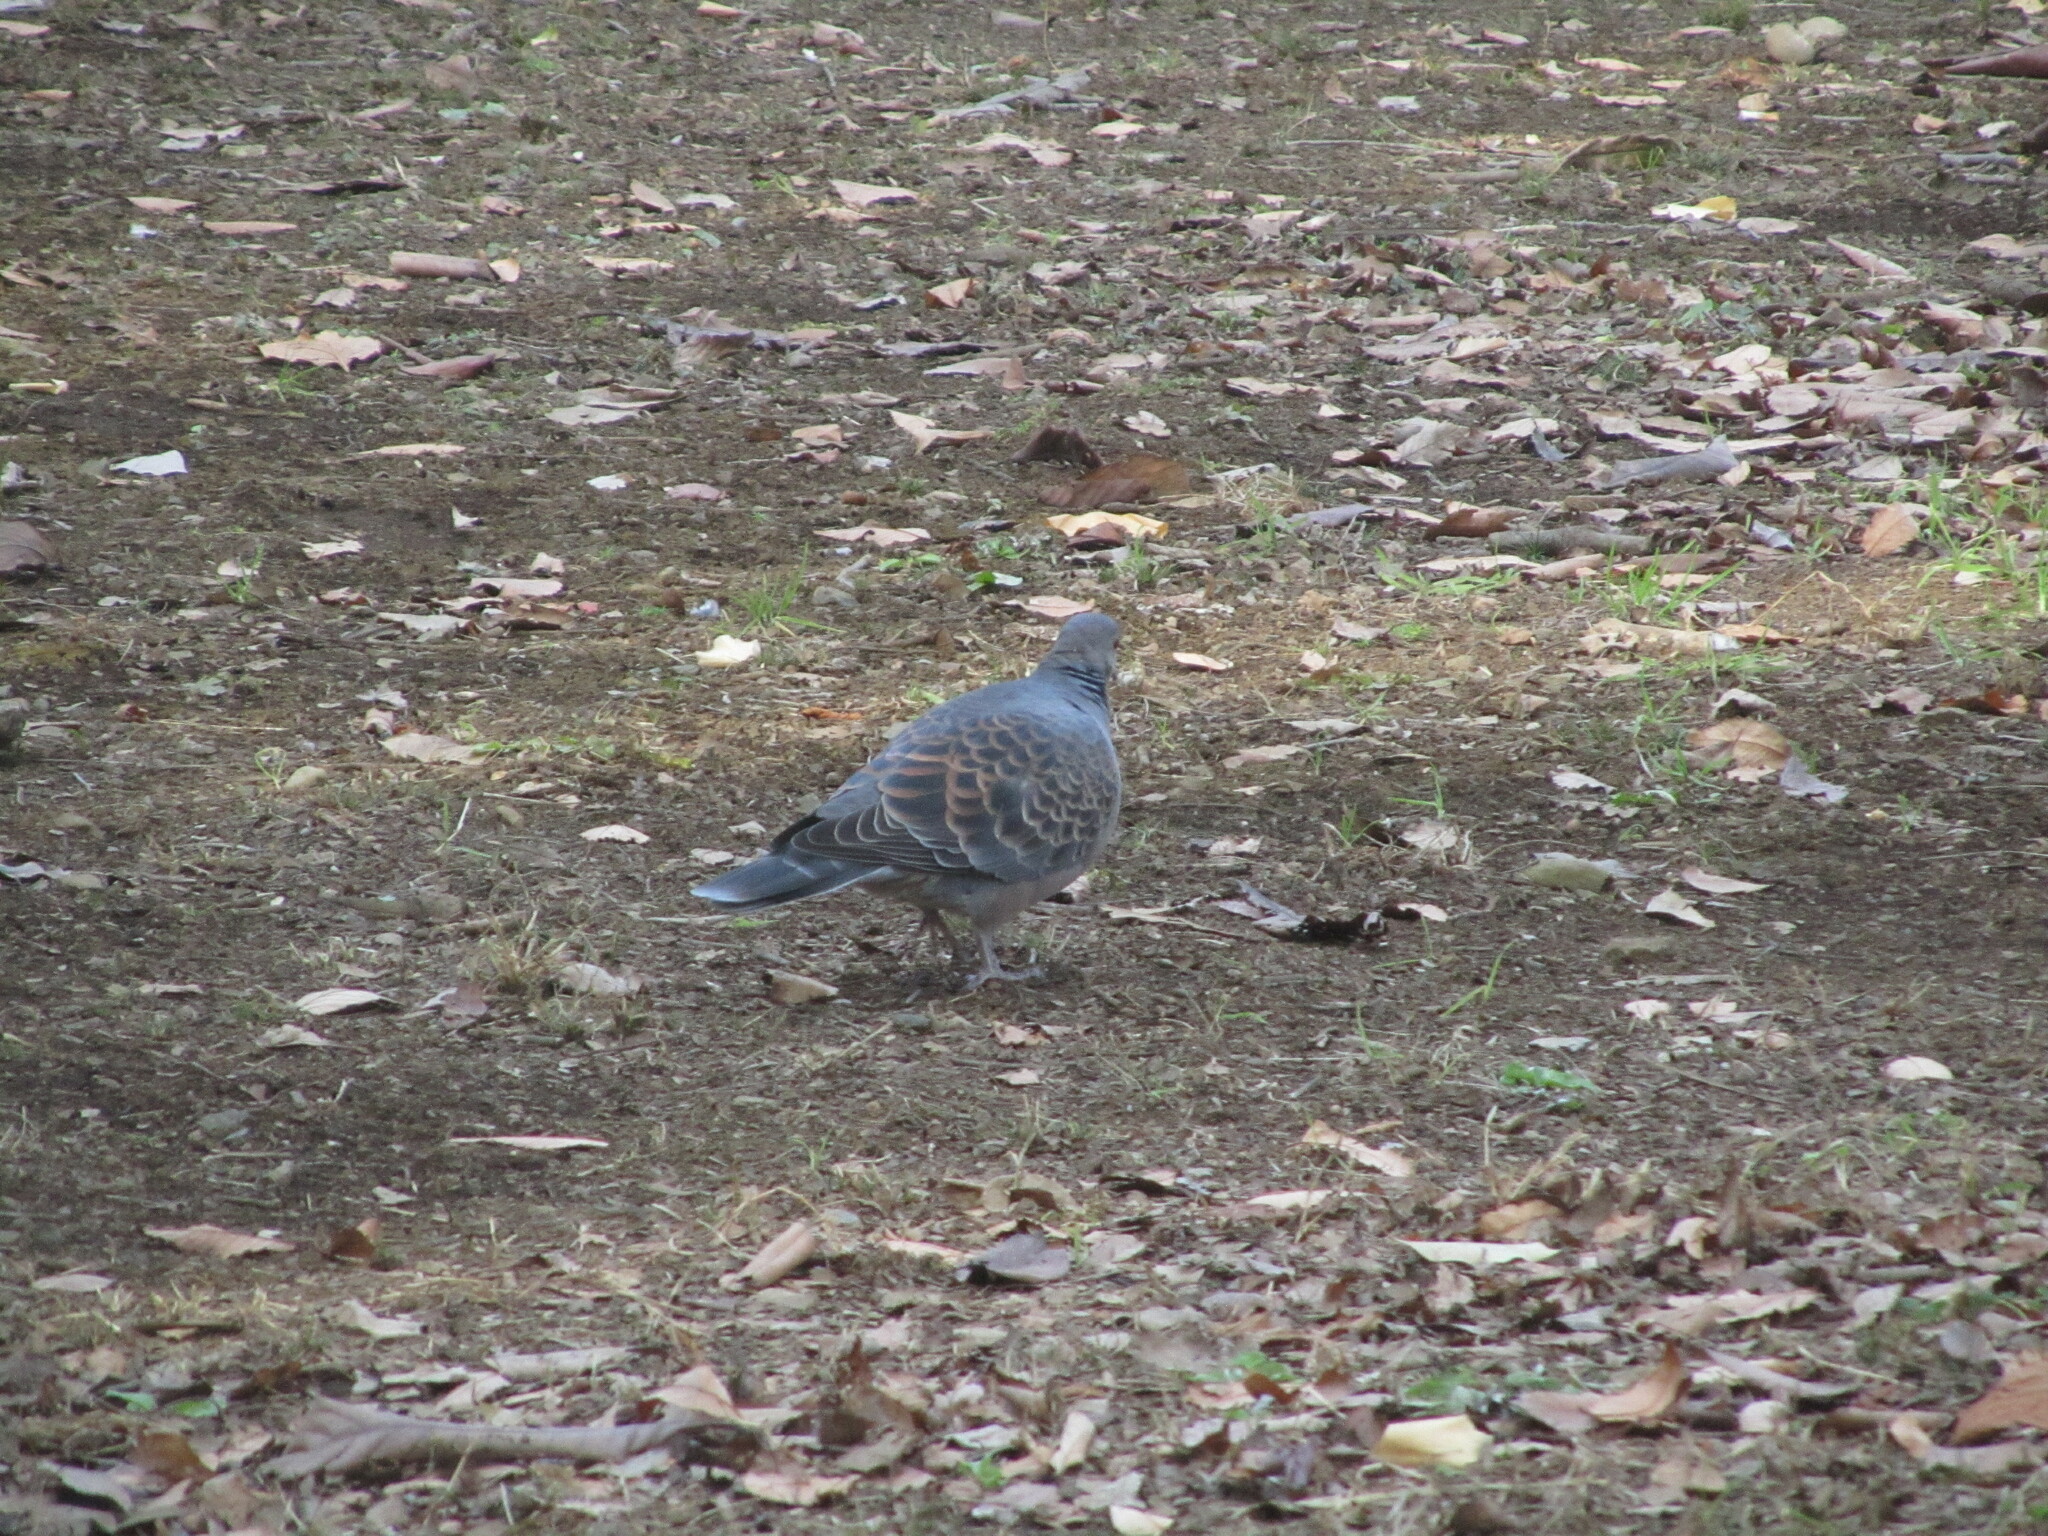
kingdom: Animalia
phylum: Chordata
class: Aves
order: Columbiformes
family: Columbidae
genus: Streptopelia
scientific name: Streptopelia orientalis
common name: Oriental turtle dove
